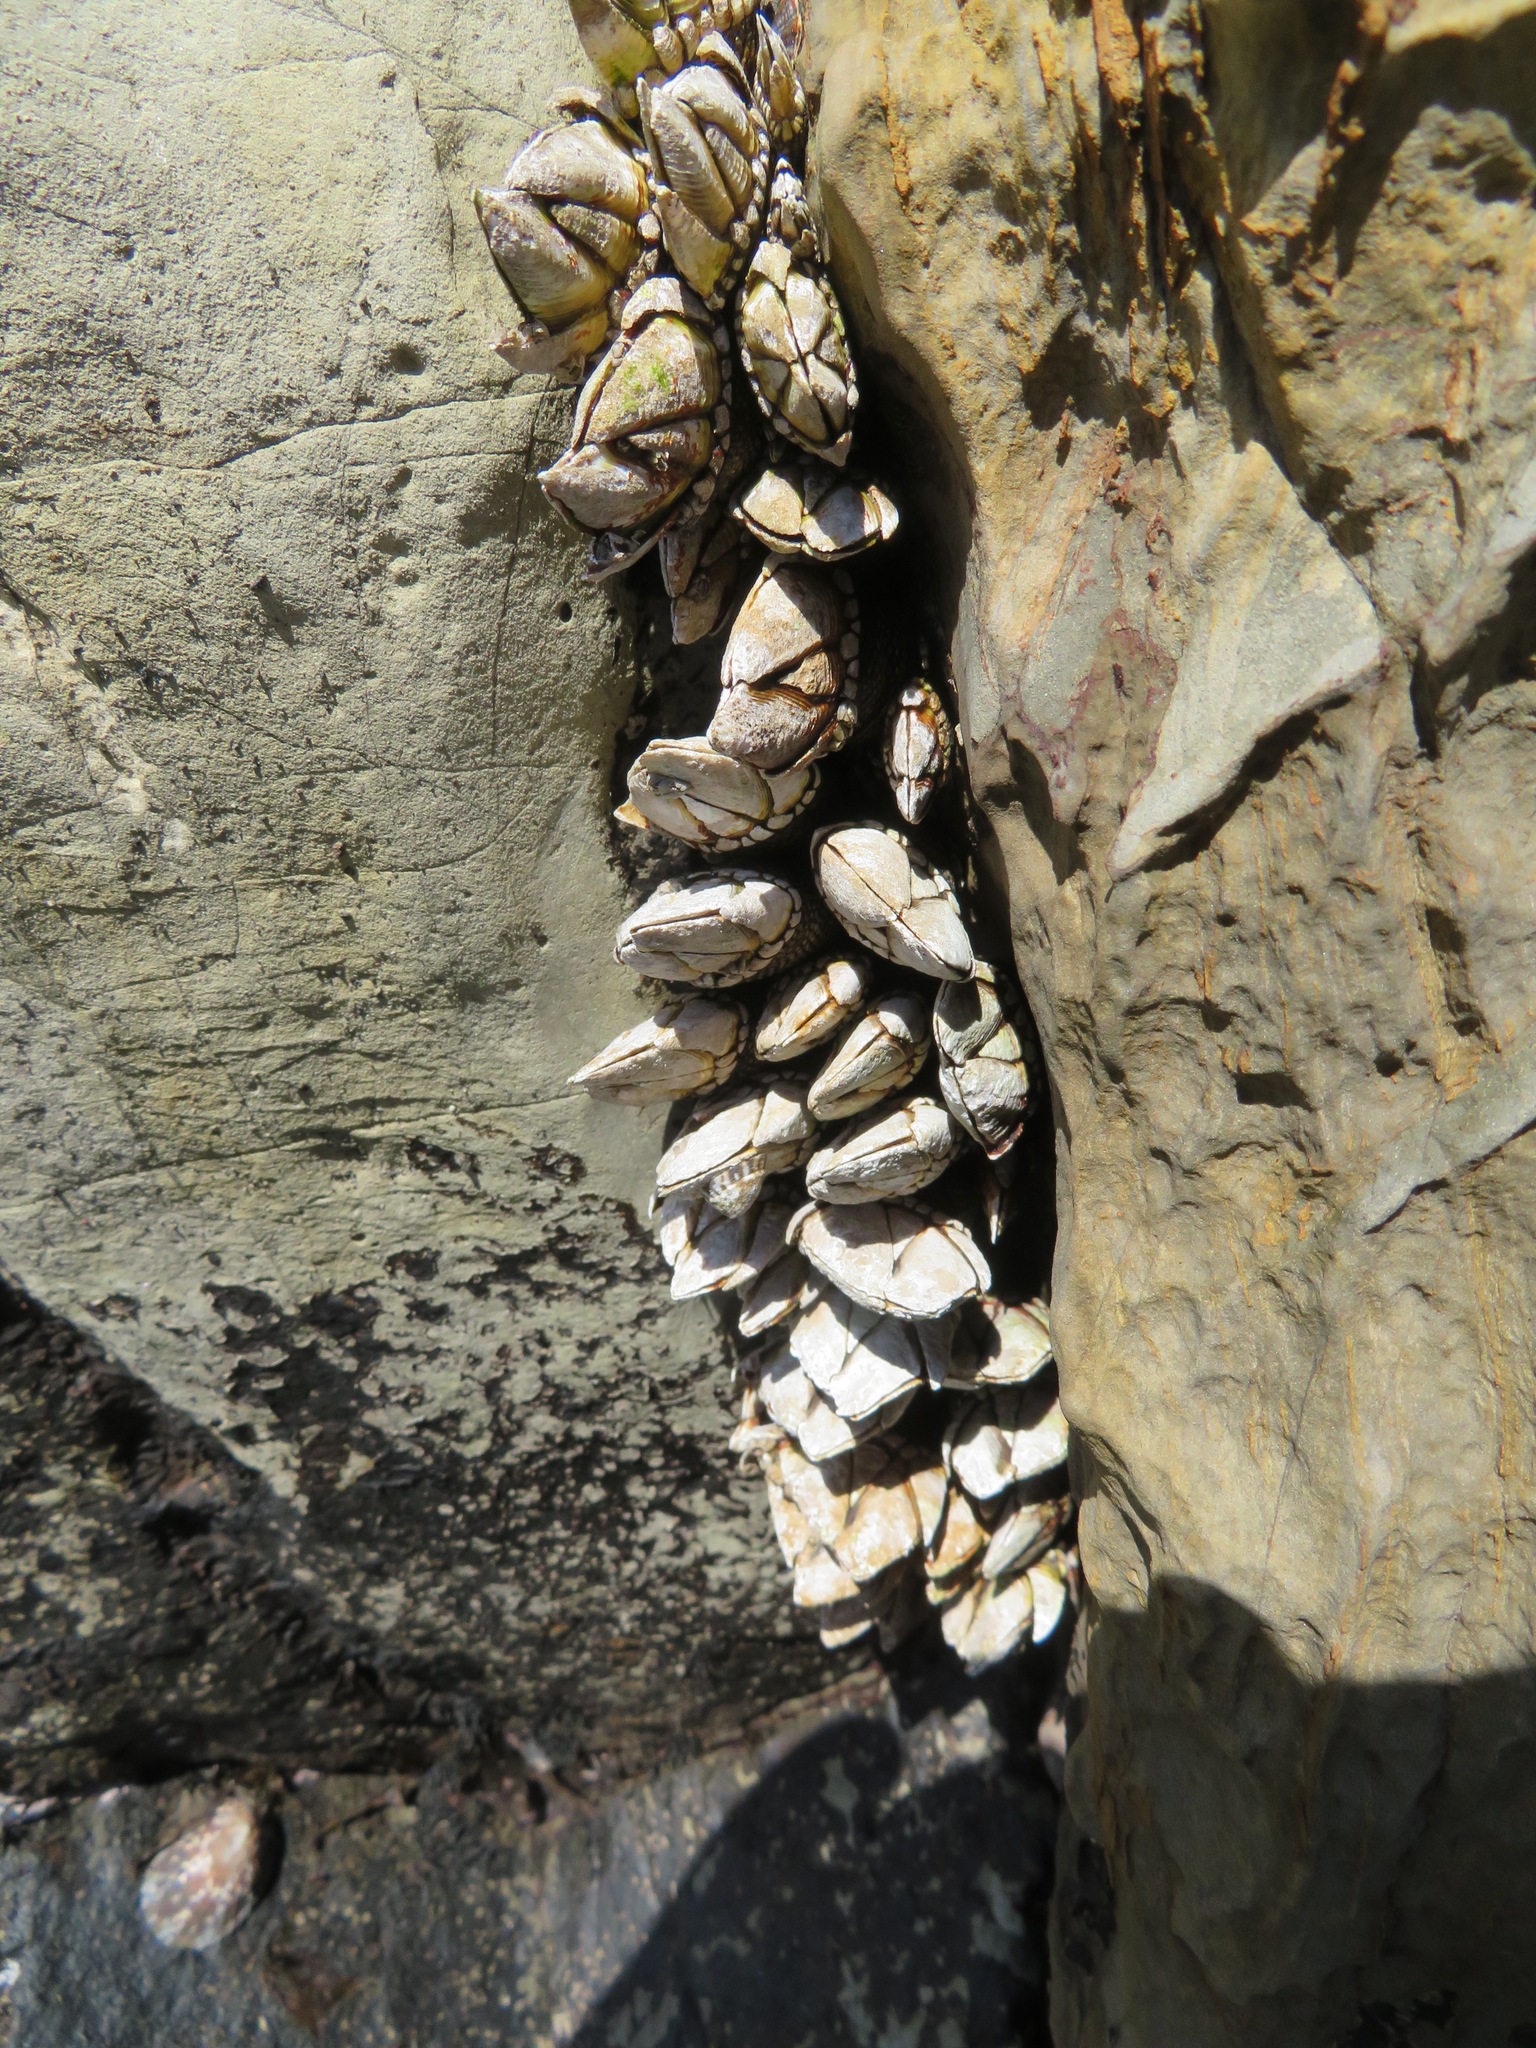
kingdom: Animalia
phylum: Arthropoda
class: Maxillopoda
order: Pedunculata
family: Pollicipedidae
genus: Capitulum
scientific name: Capitulum mitella
